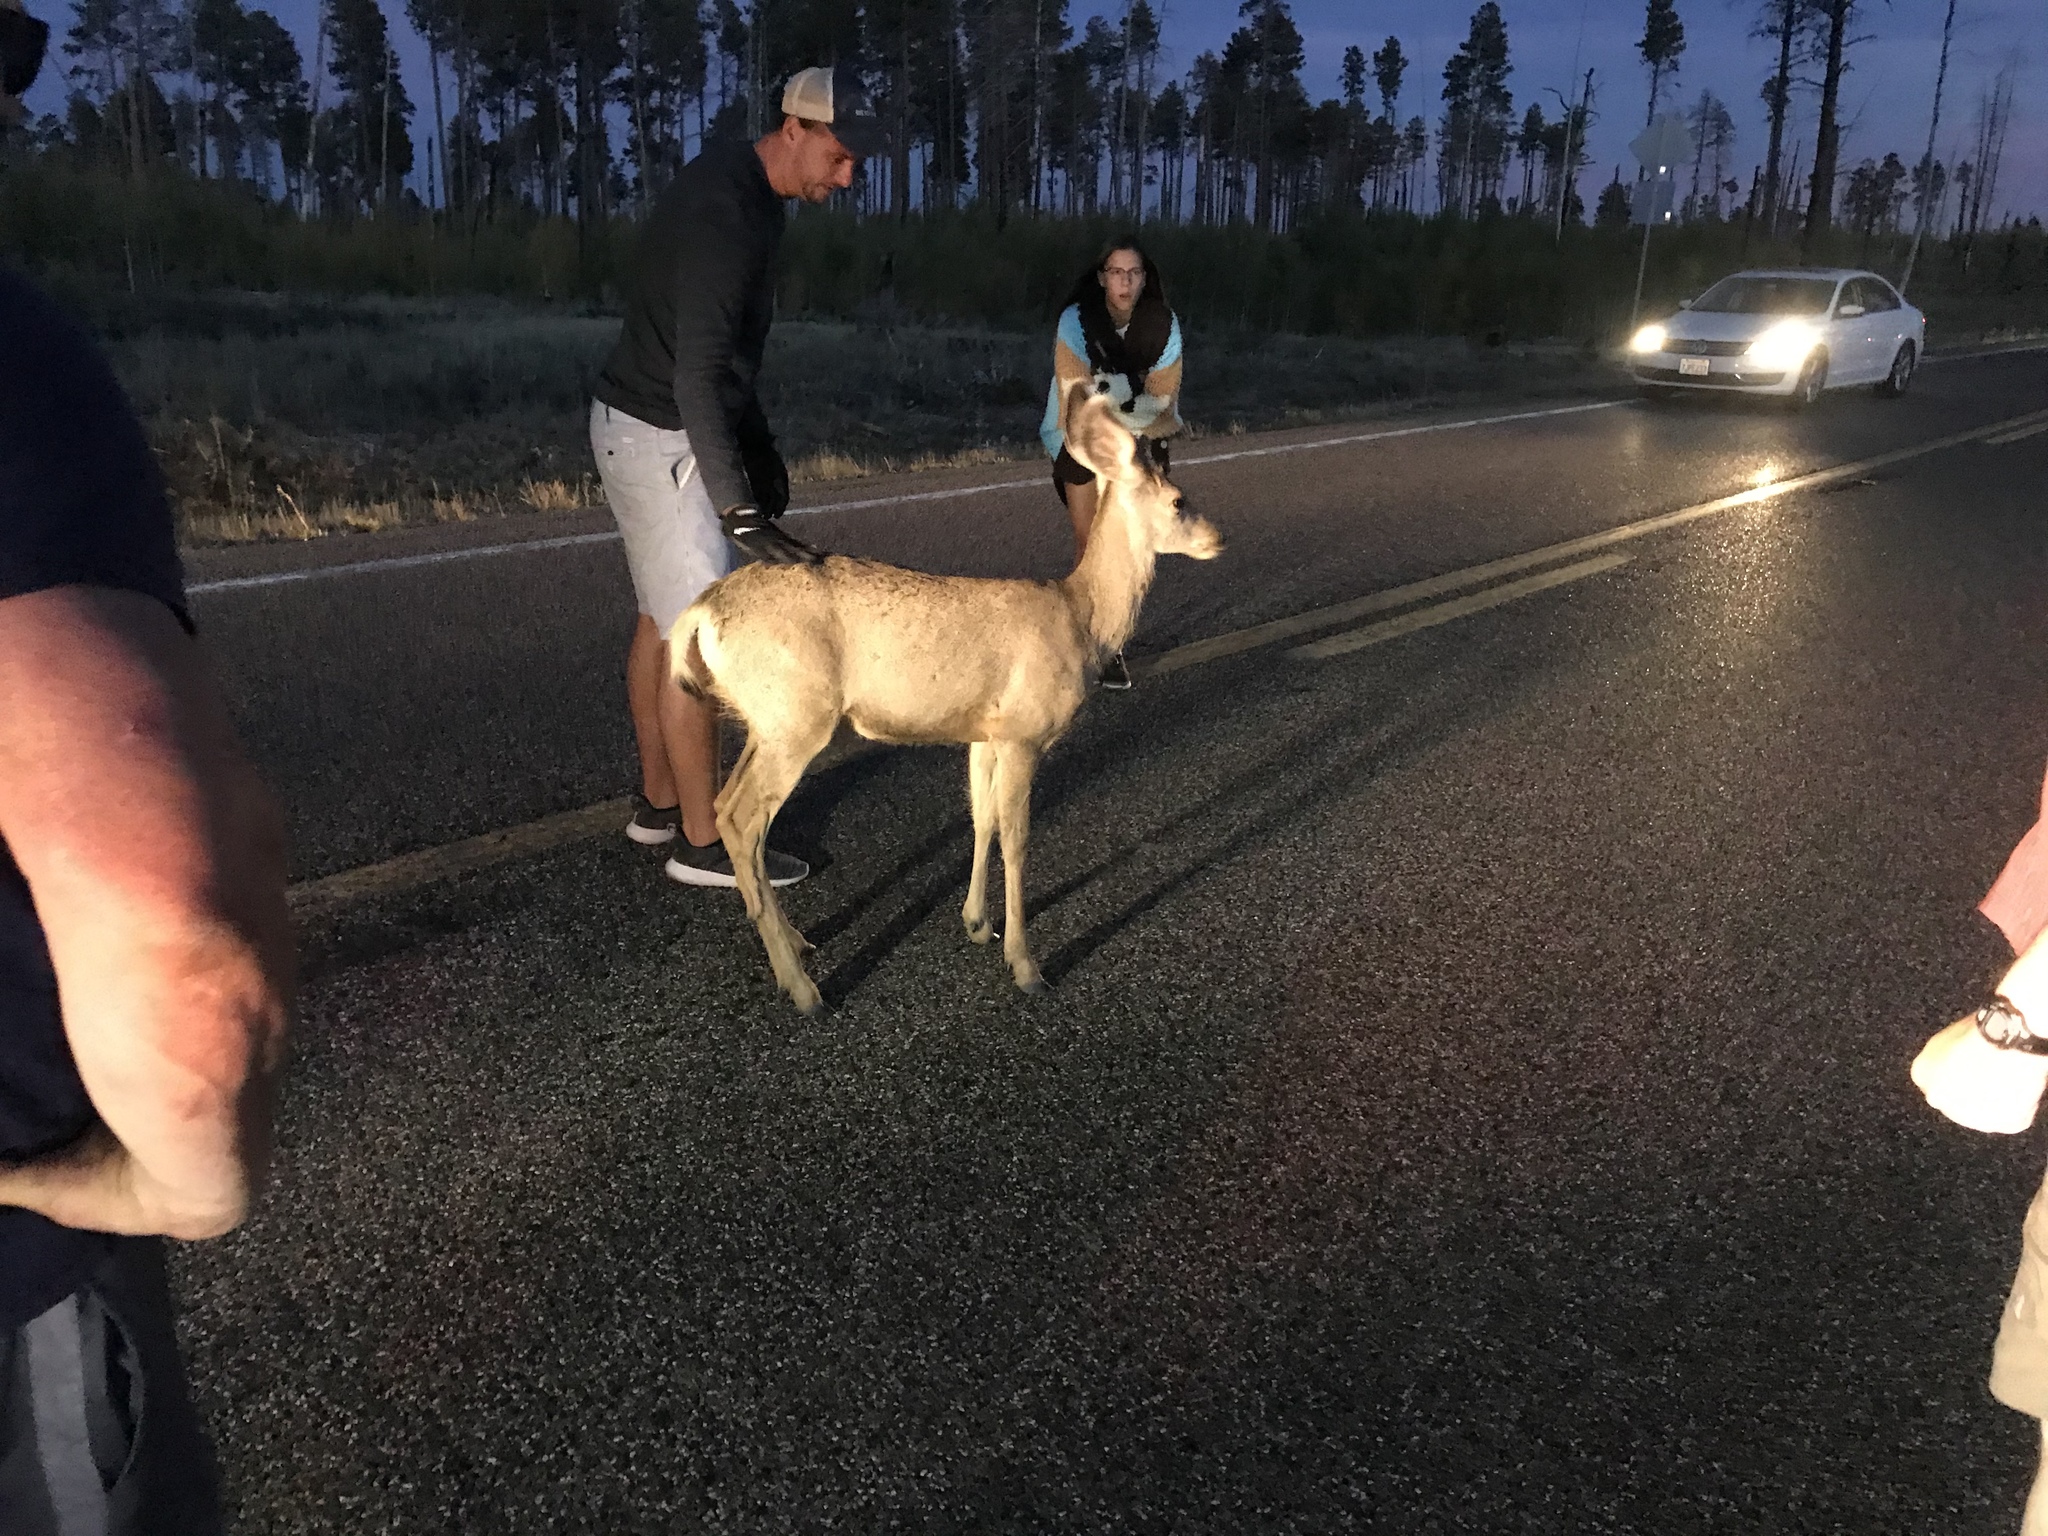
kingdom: Animalia
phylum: Chordata
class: Mammalia
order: Artiodactyla
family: Cervidae
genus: Odocoileus
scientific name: Odocoileus hemionus
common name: Mule deer
